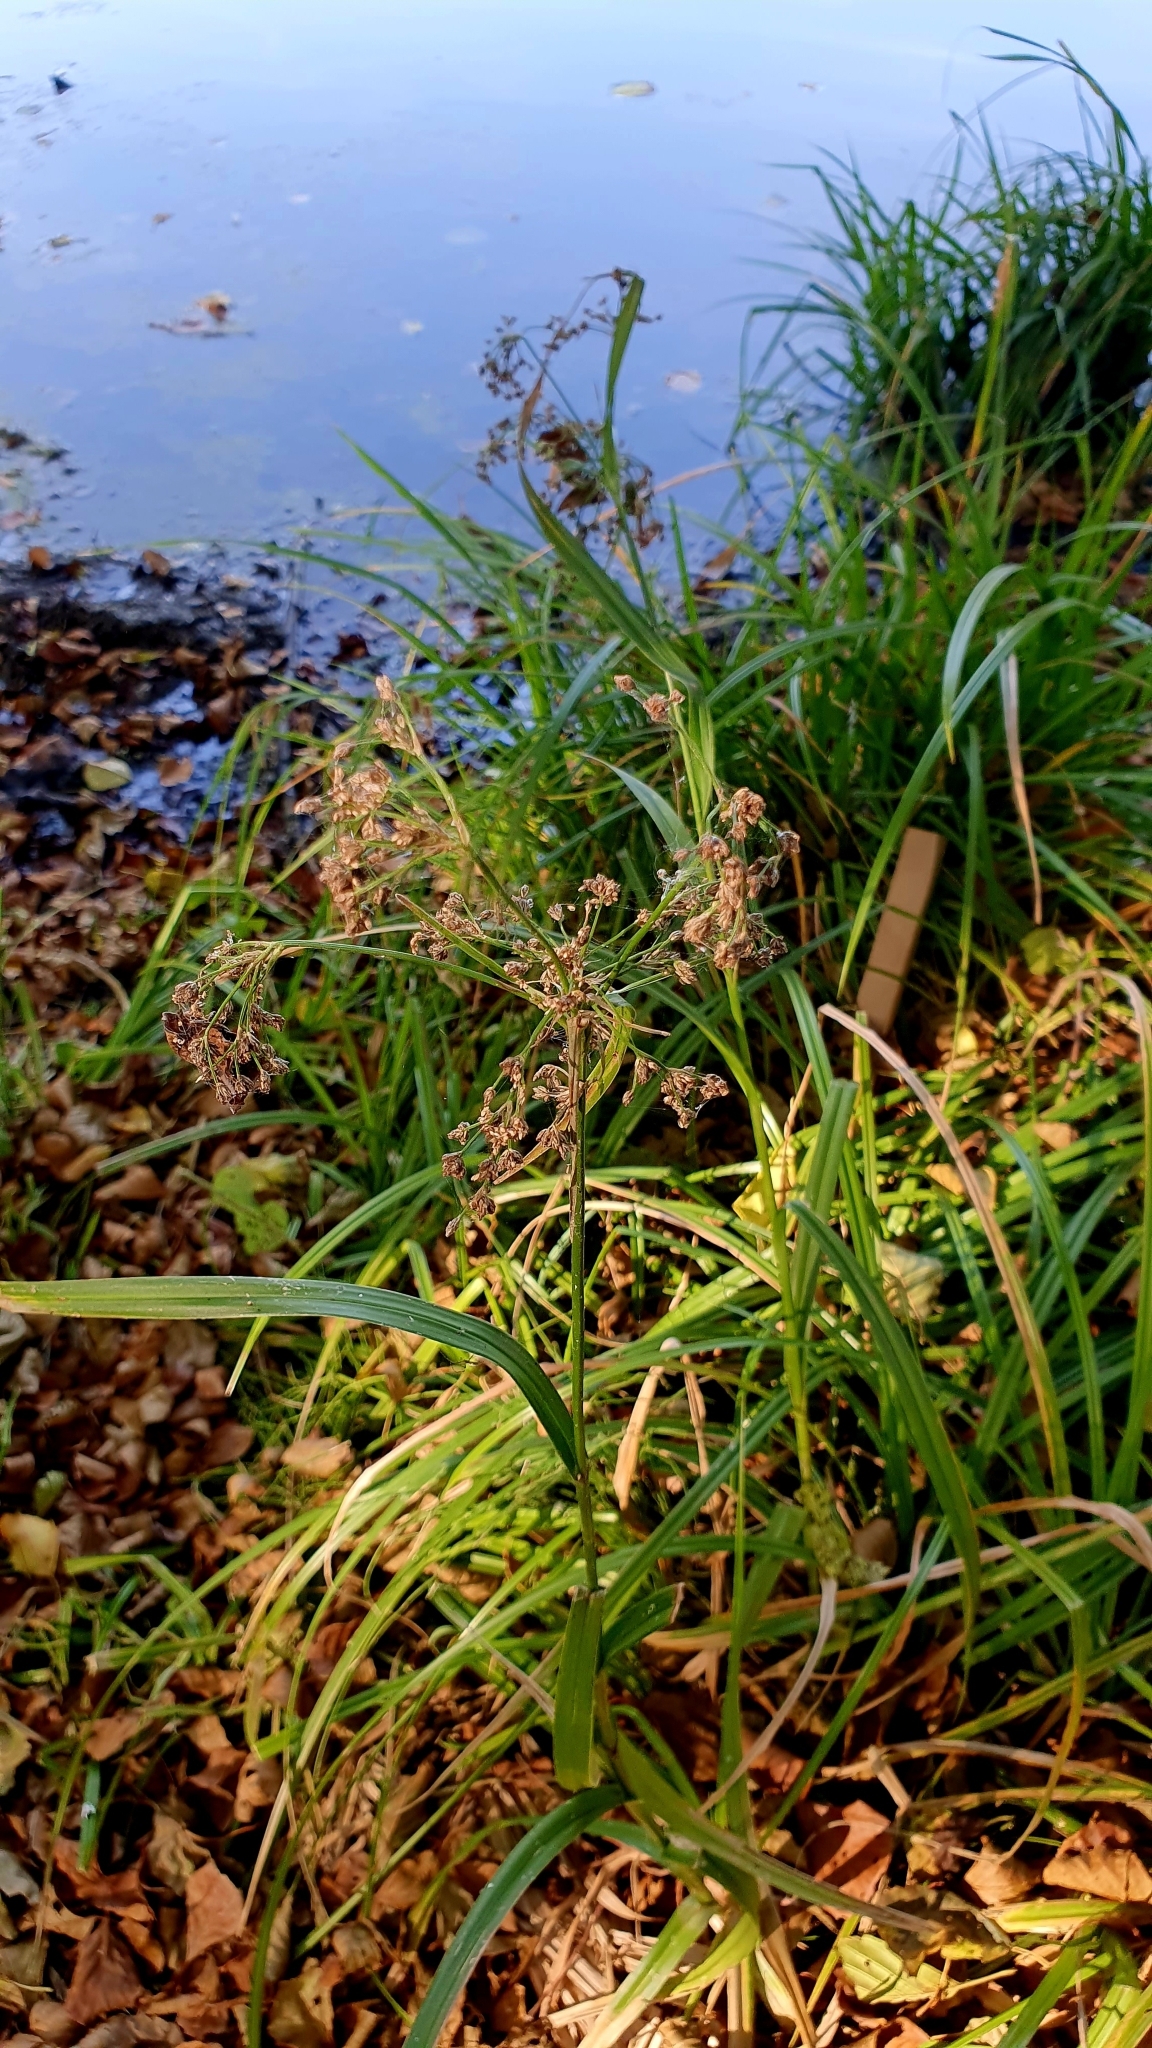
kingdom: Plantae
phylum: Tracheophyta
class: Liliopsida
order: Poales
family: Cyperaceae
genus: Scirpus
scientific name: Scirpus sylvaticus
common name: Wood club-rush
